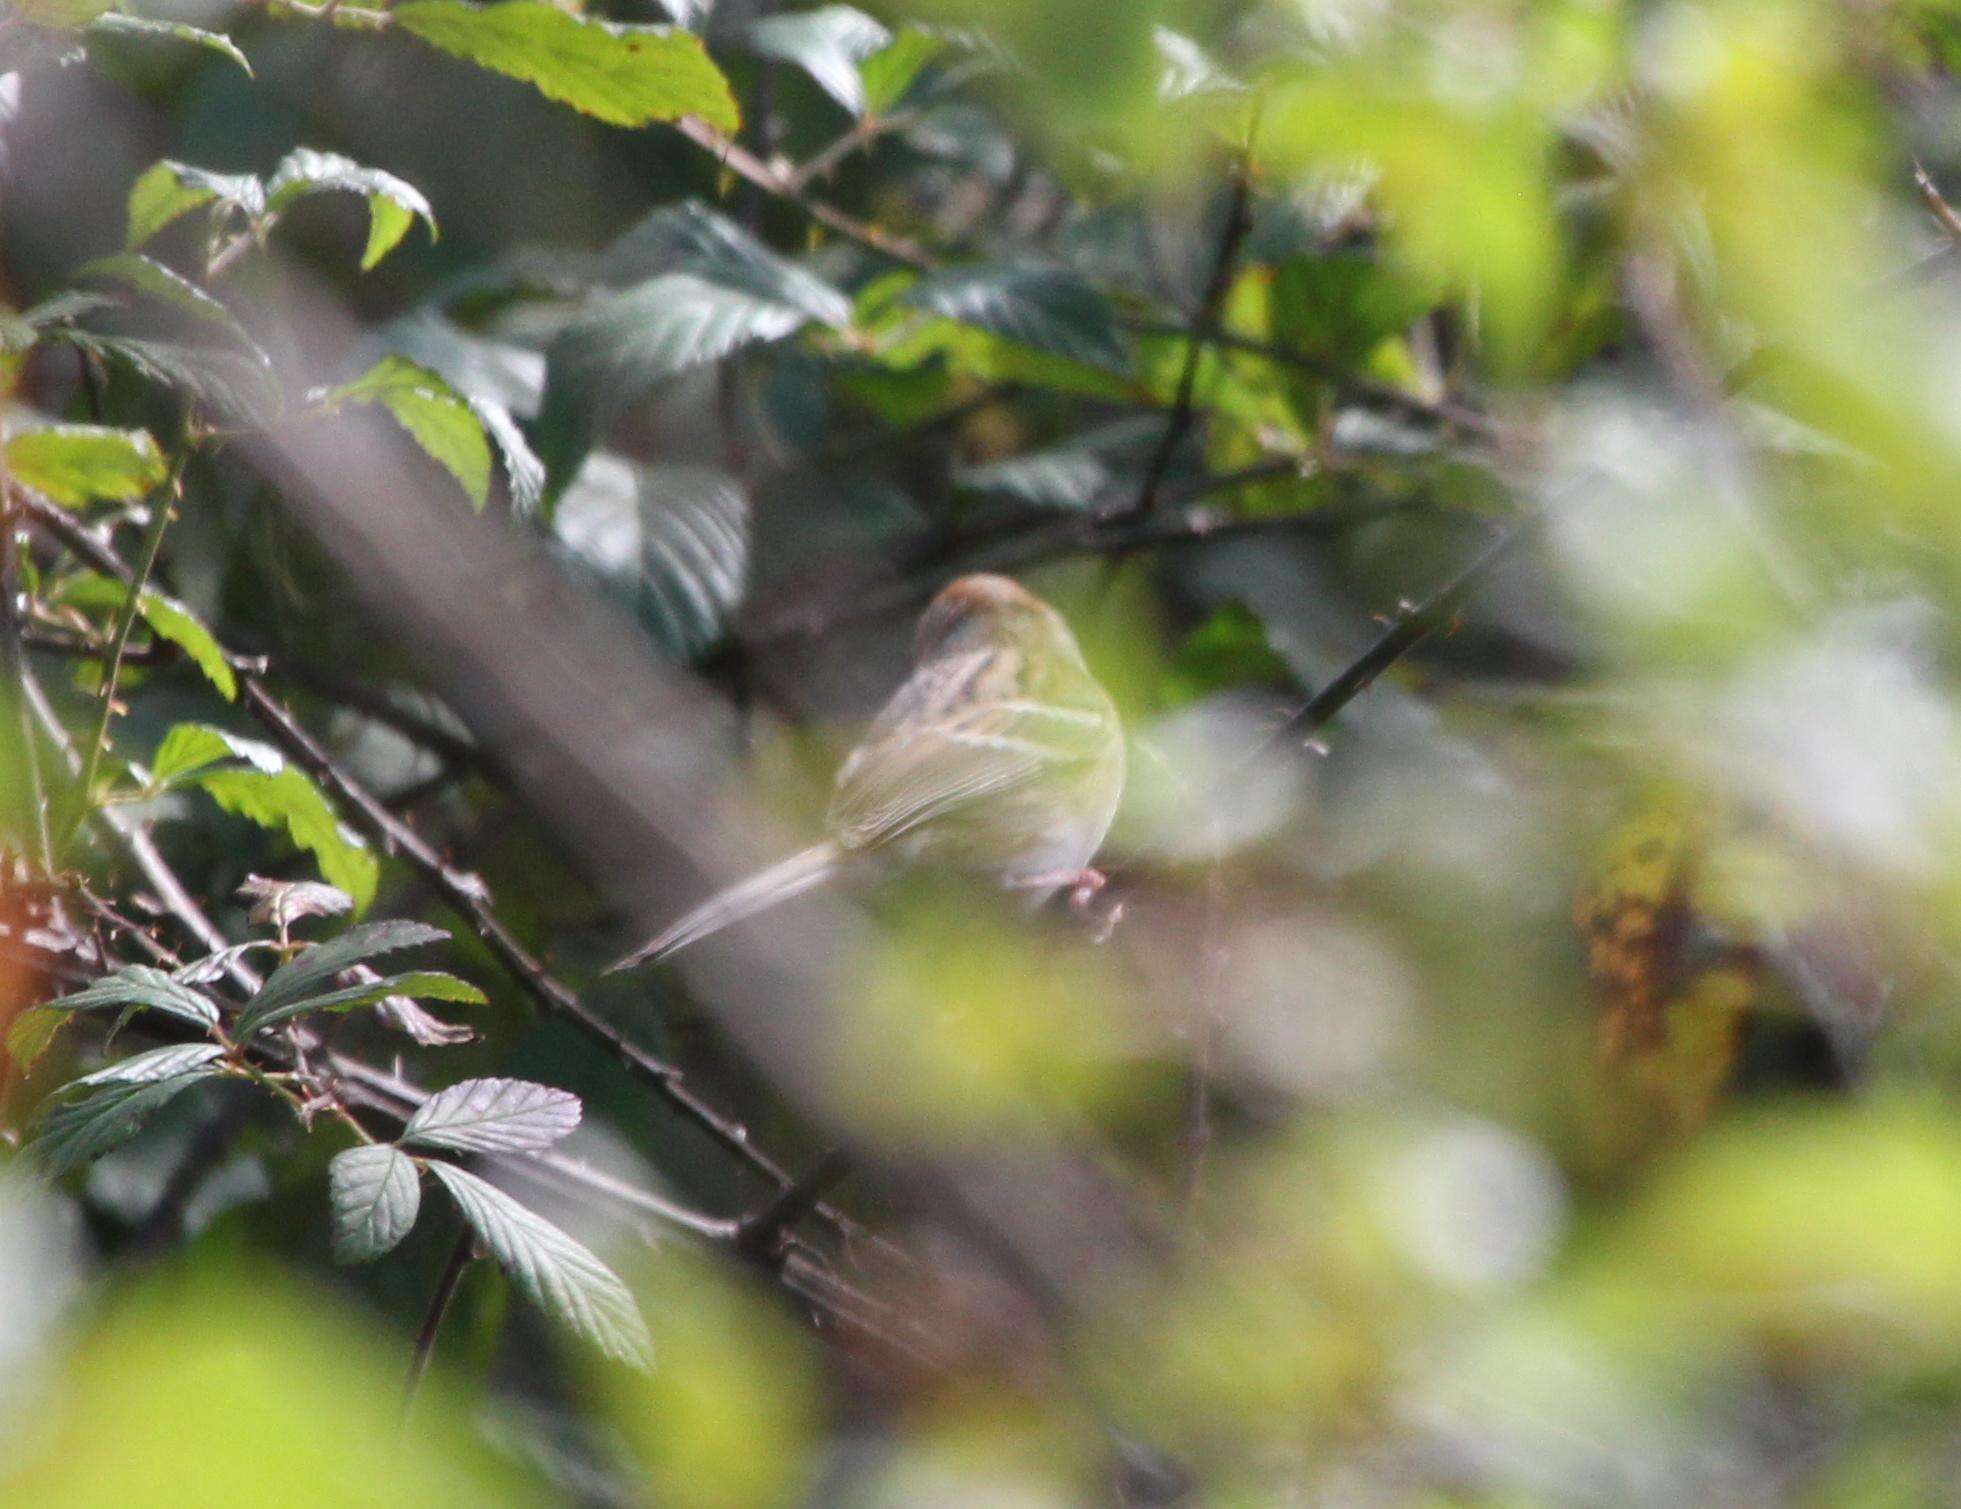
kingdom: Animalia
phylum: Chordata
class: Aves
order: Passeriformes
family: Passerellidae
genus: Spizella
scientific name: Spizella pusilla
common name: Field sparrow
